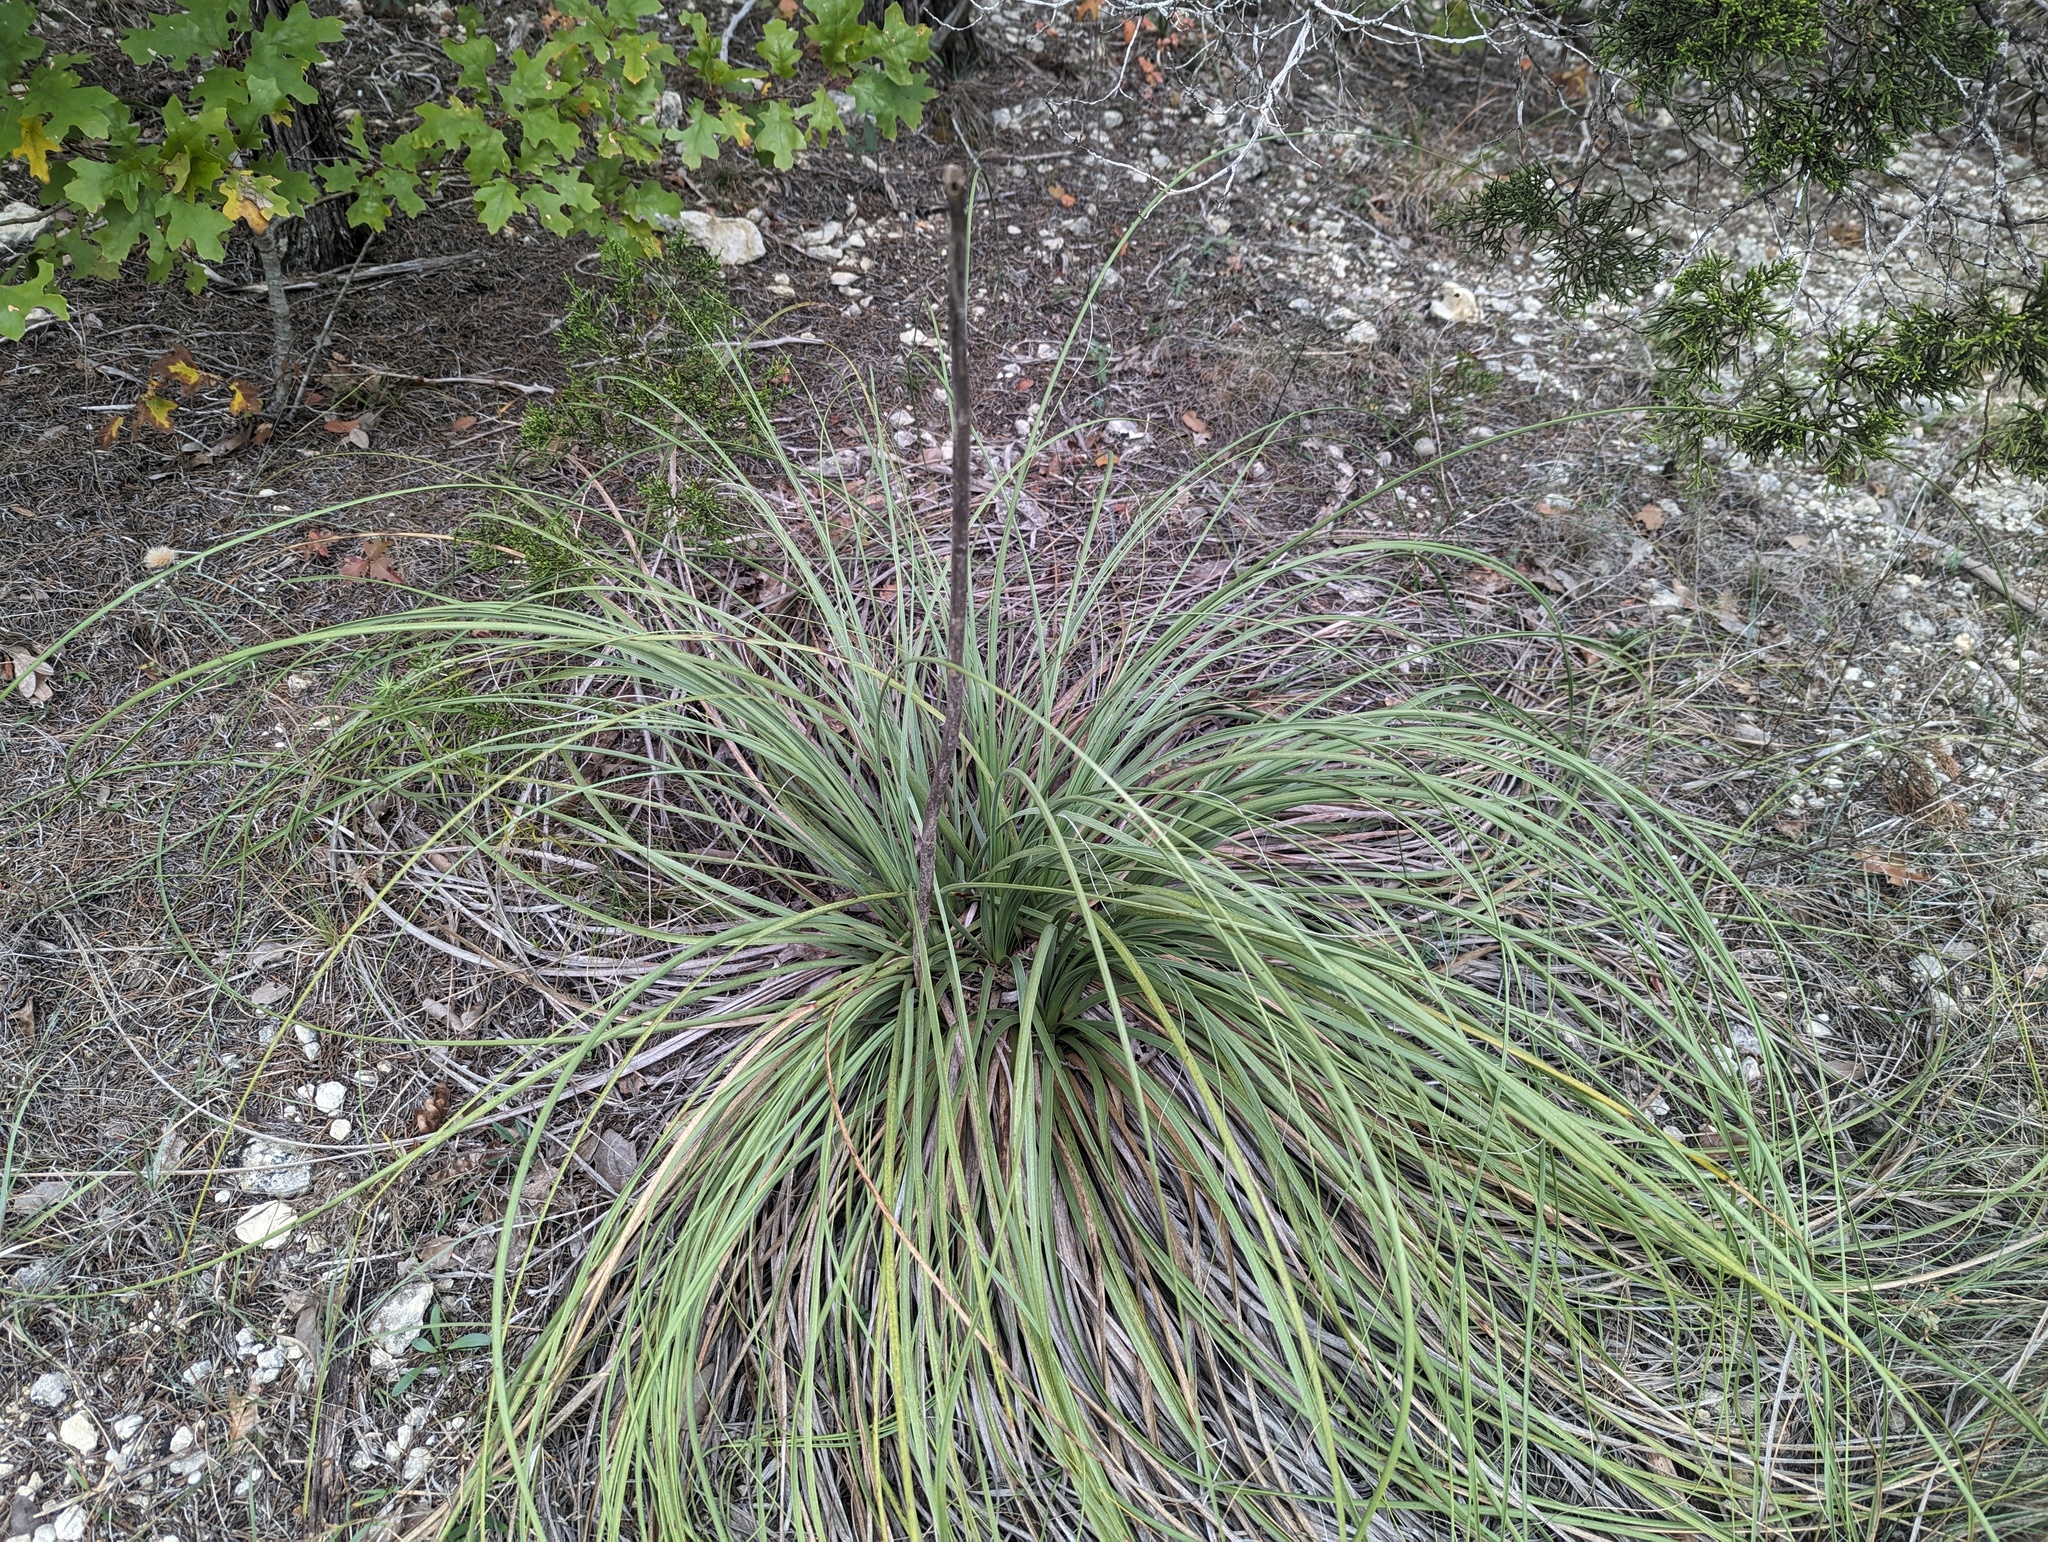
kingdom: Plantae
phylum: Tracheophyta
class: Liliopsida
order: Asparagales
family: Asparagaceae
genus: Nolina
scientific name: Nolina lindheimeriana
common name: Lindheimer's bear-grass
